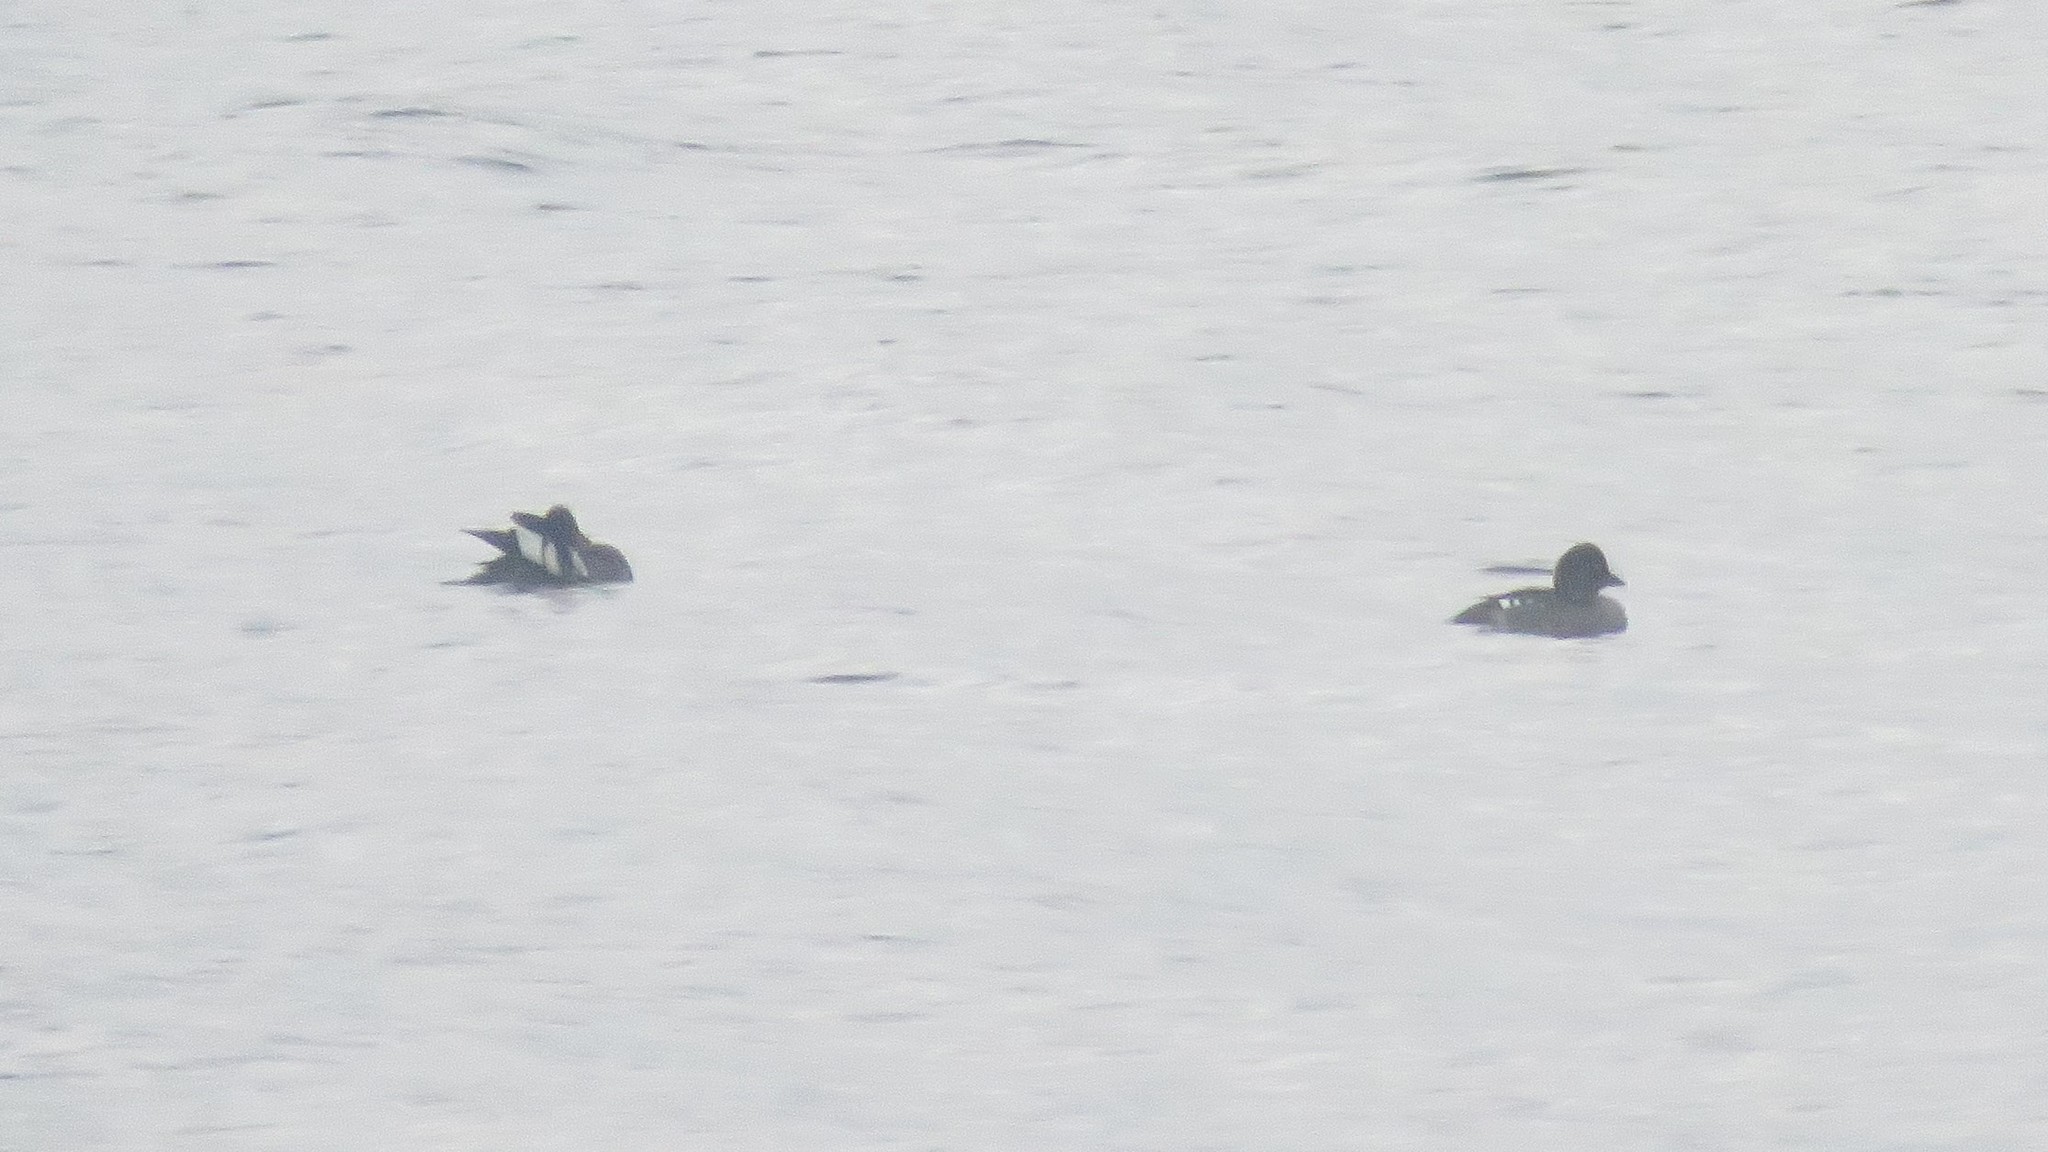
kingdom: Animalia
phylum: Chordata
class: Aves
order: Anseriformes
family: Anatidae
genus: Bucephala
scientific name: Bucephala clangula
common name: Common goldeneye
